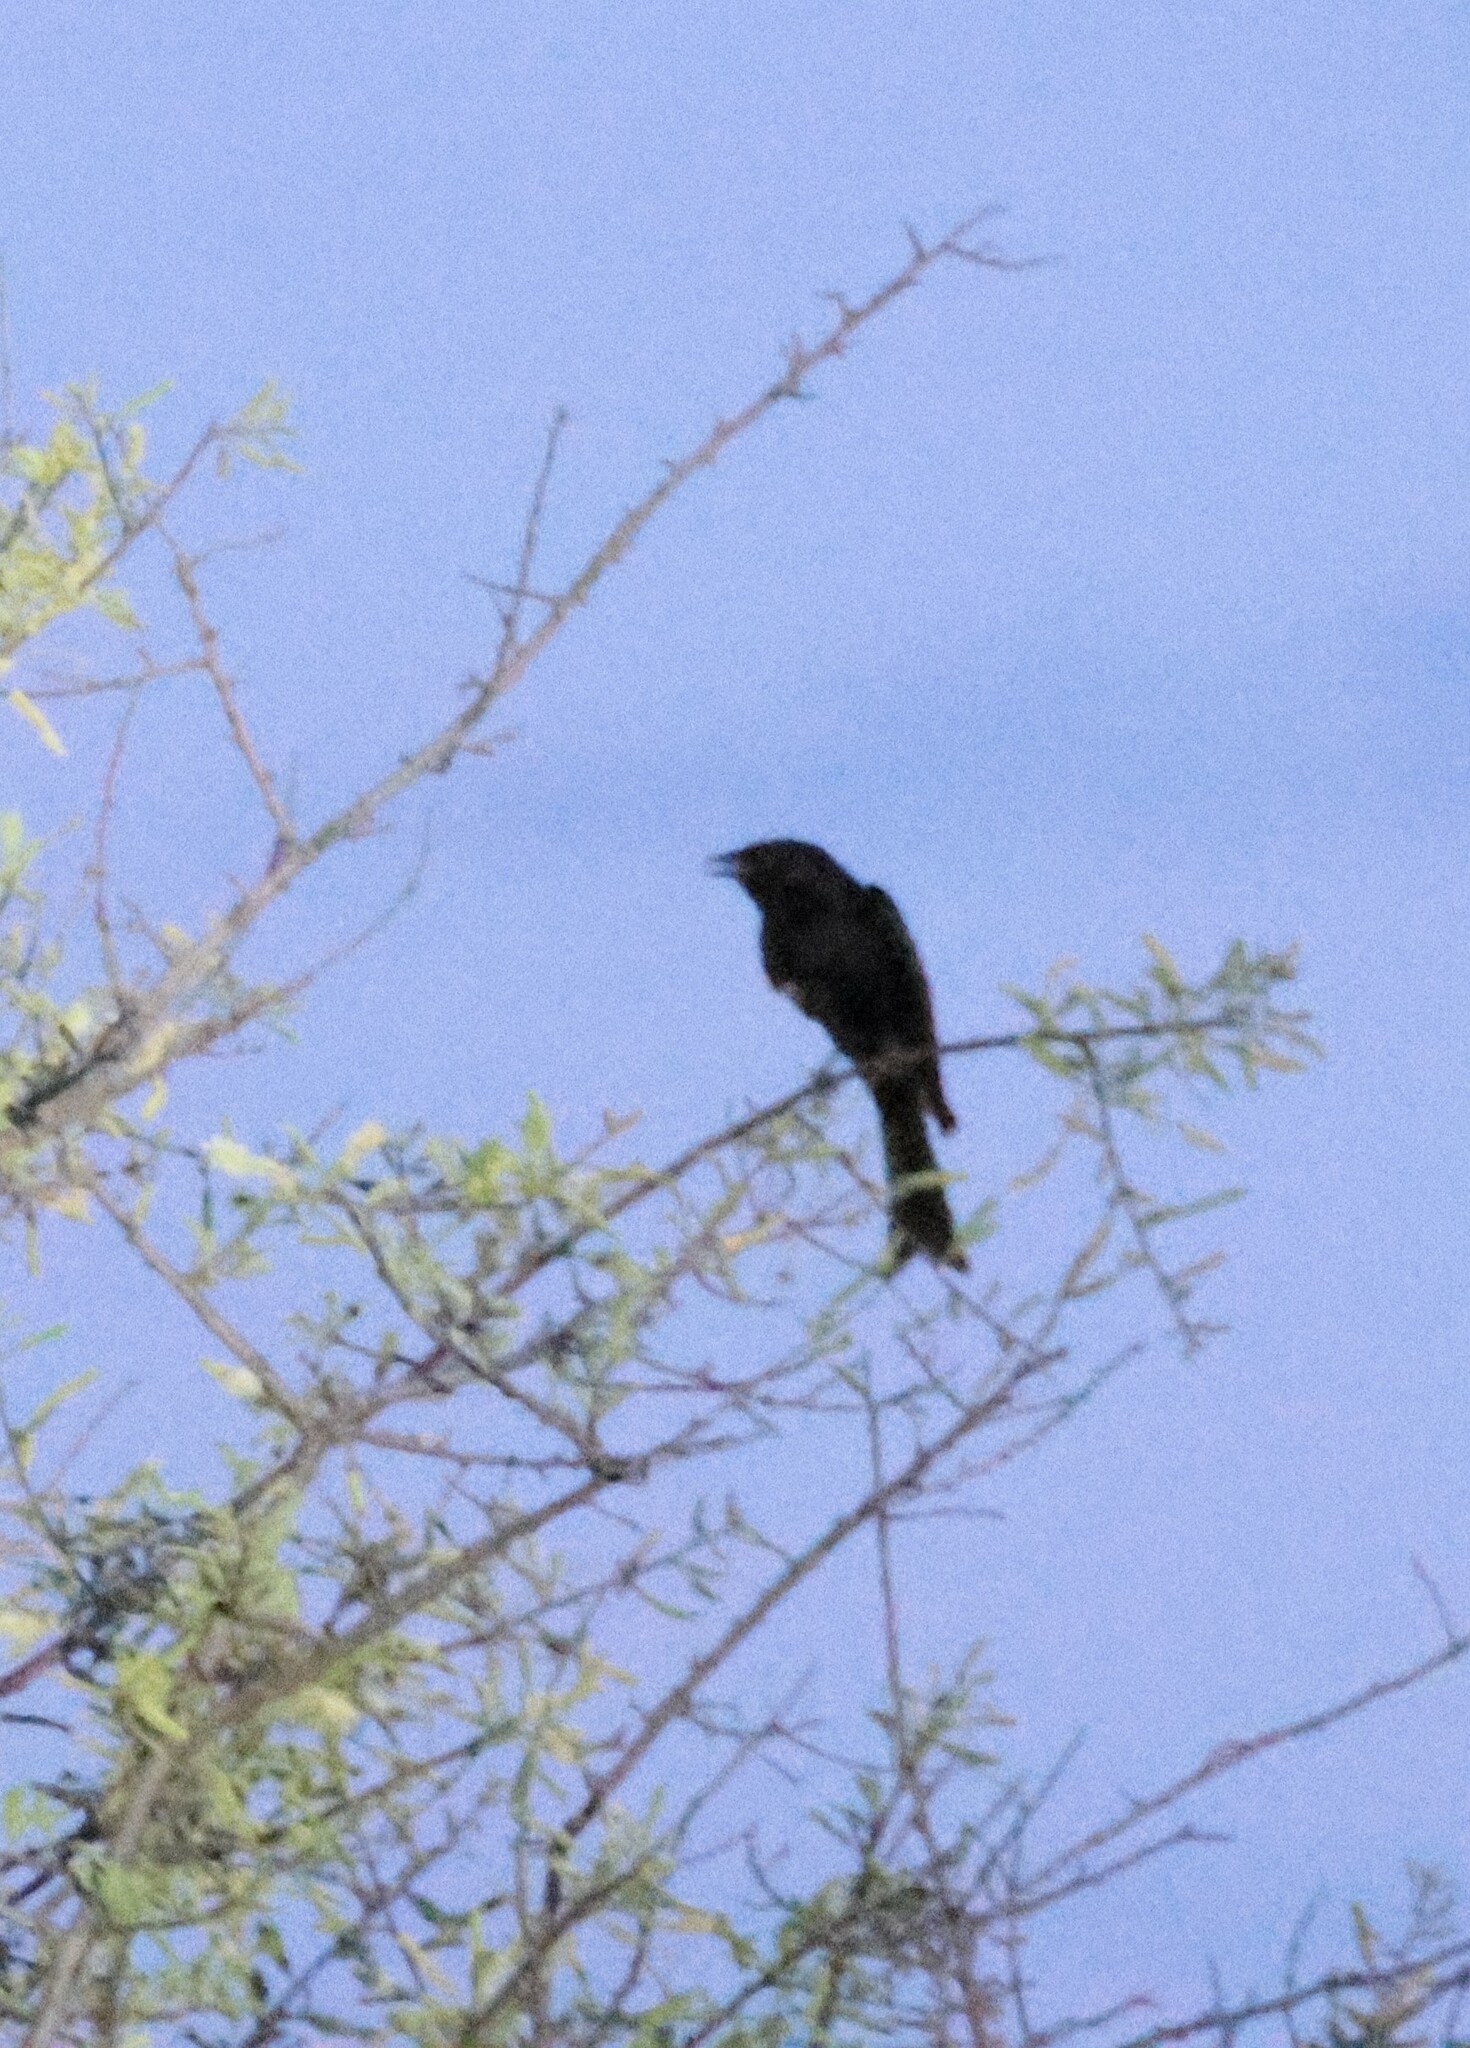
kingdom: Animalia
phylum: Chordata
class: Aves
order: Passeriformes
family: Dicruridae
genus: Dicrurus
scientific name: Dicrurus adsimilis
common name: Fork-tailed drongo
